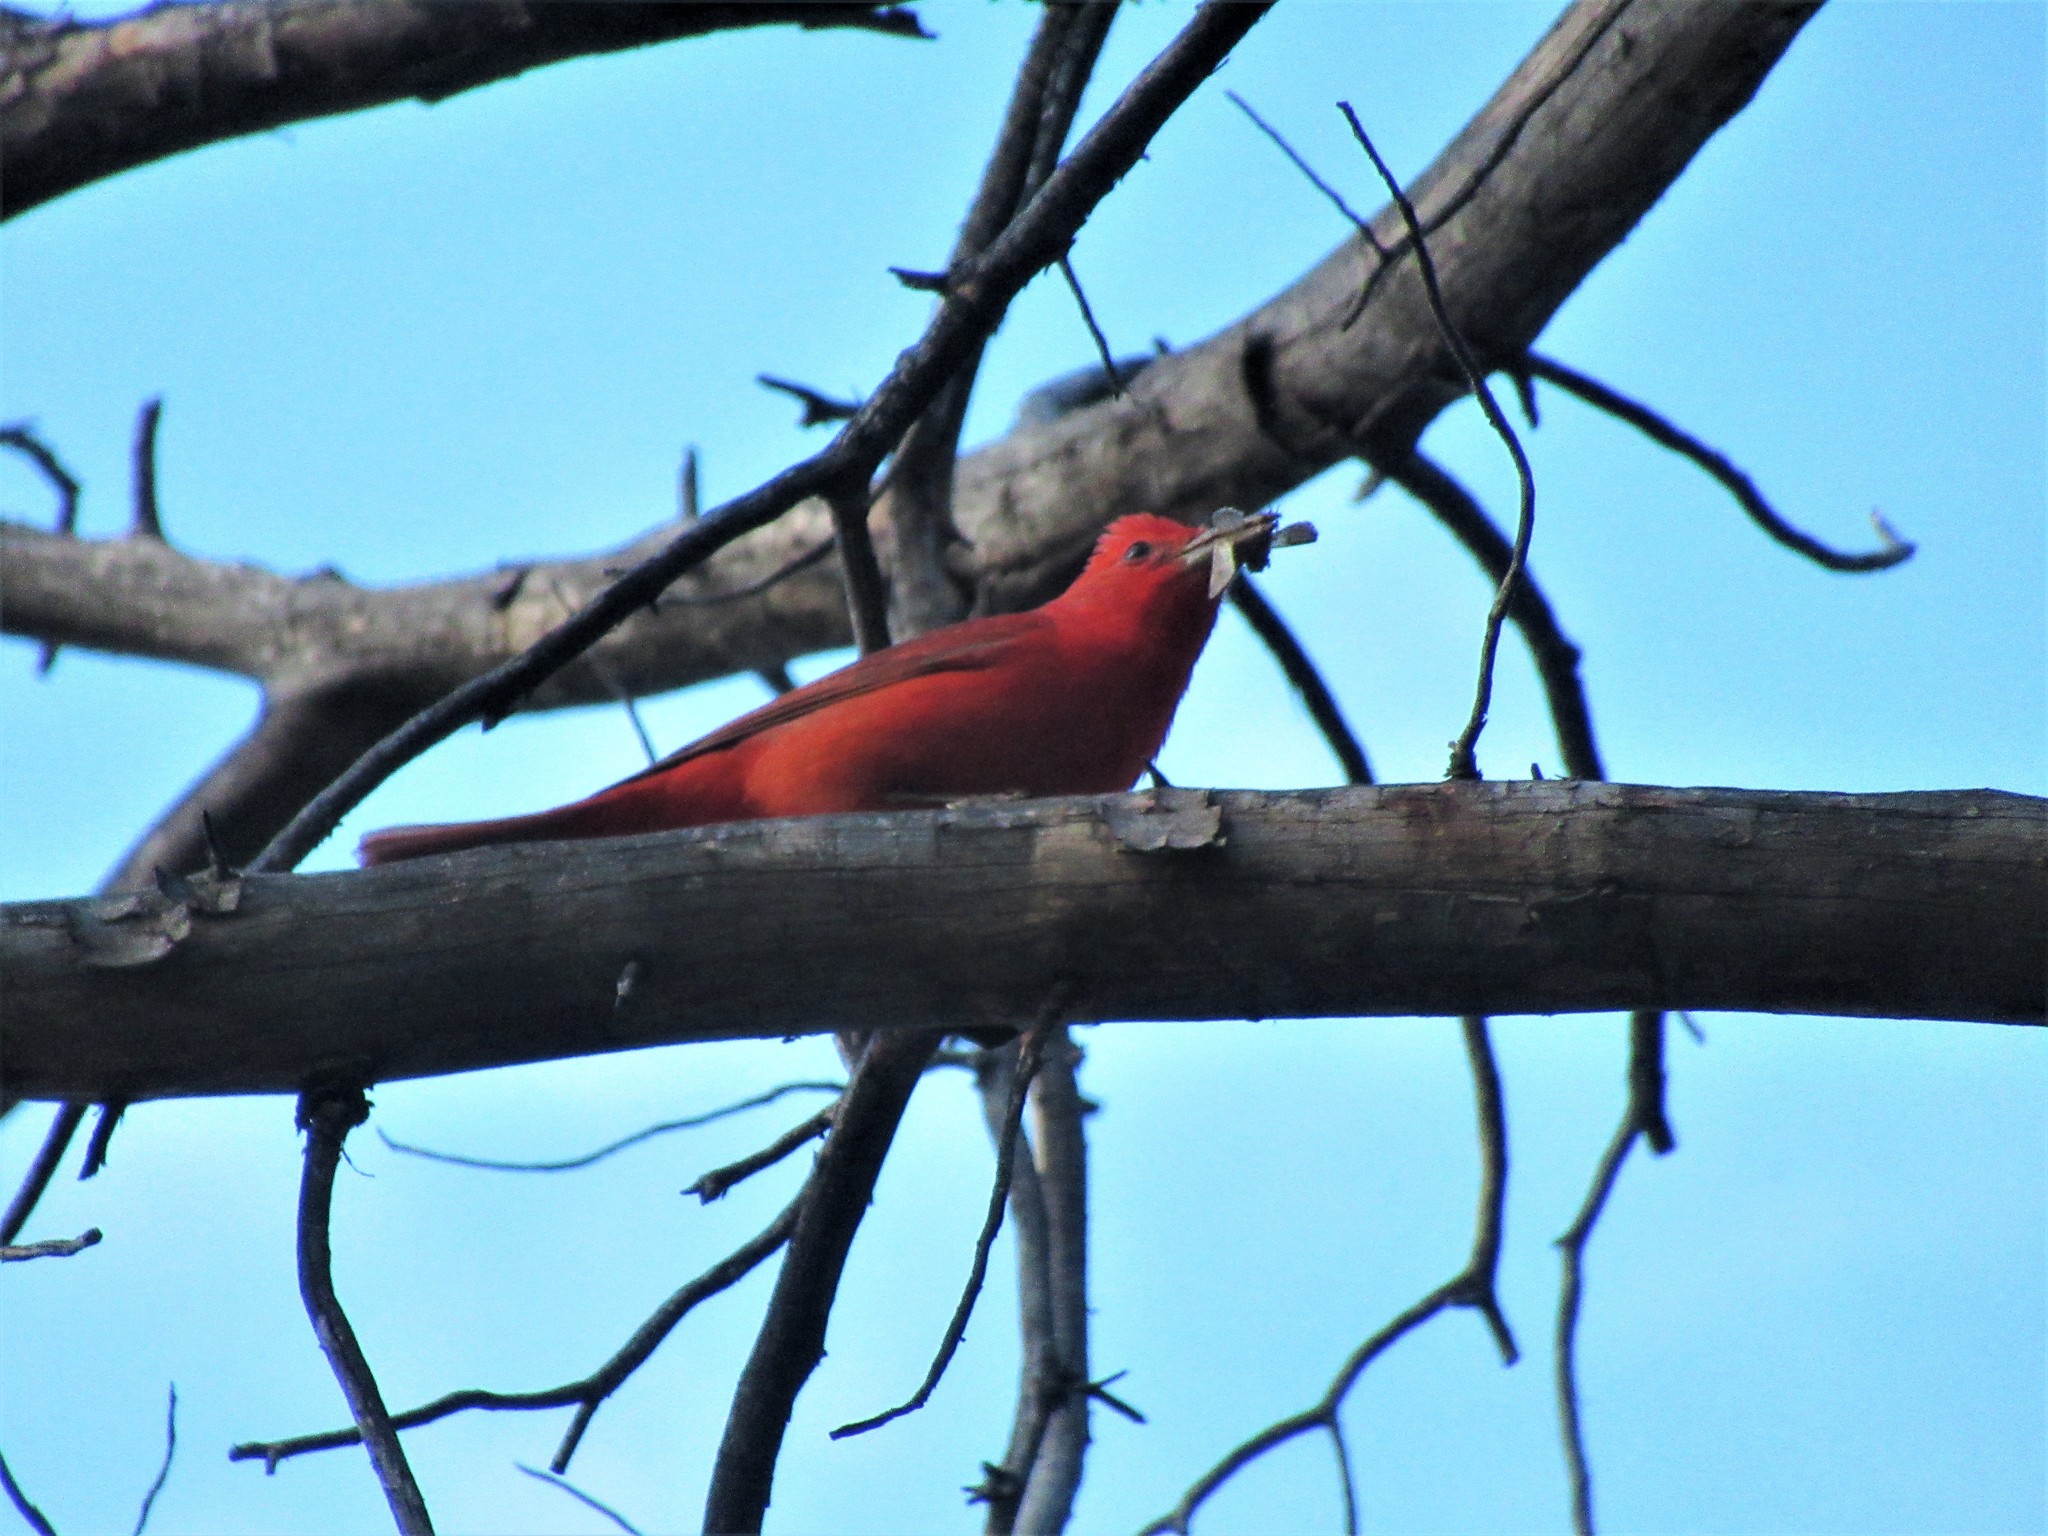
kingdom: Animalia
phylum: Chordata
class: Aves
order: Passeriformes
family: Cardinalidae
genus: Piranga
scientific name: Piranga rubra
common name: Summer tanager
